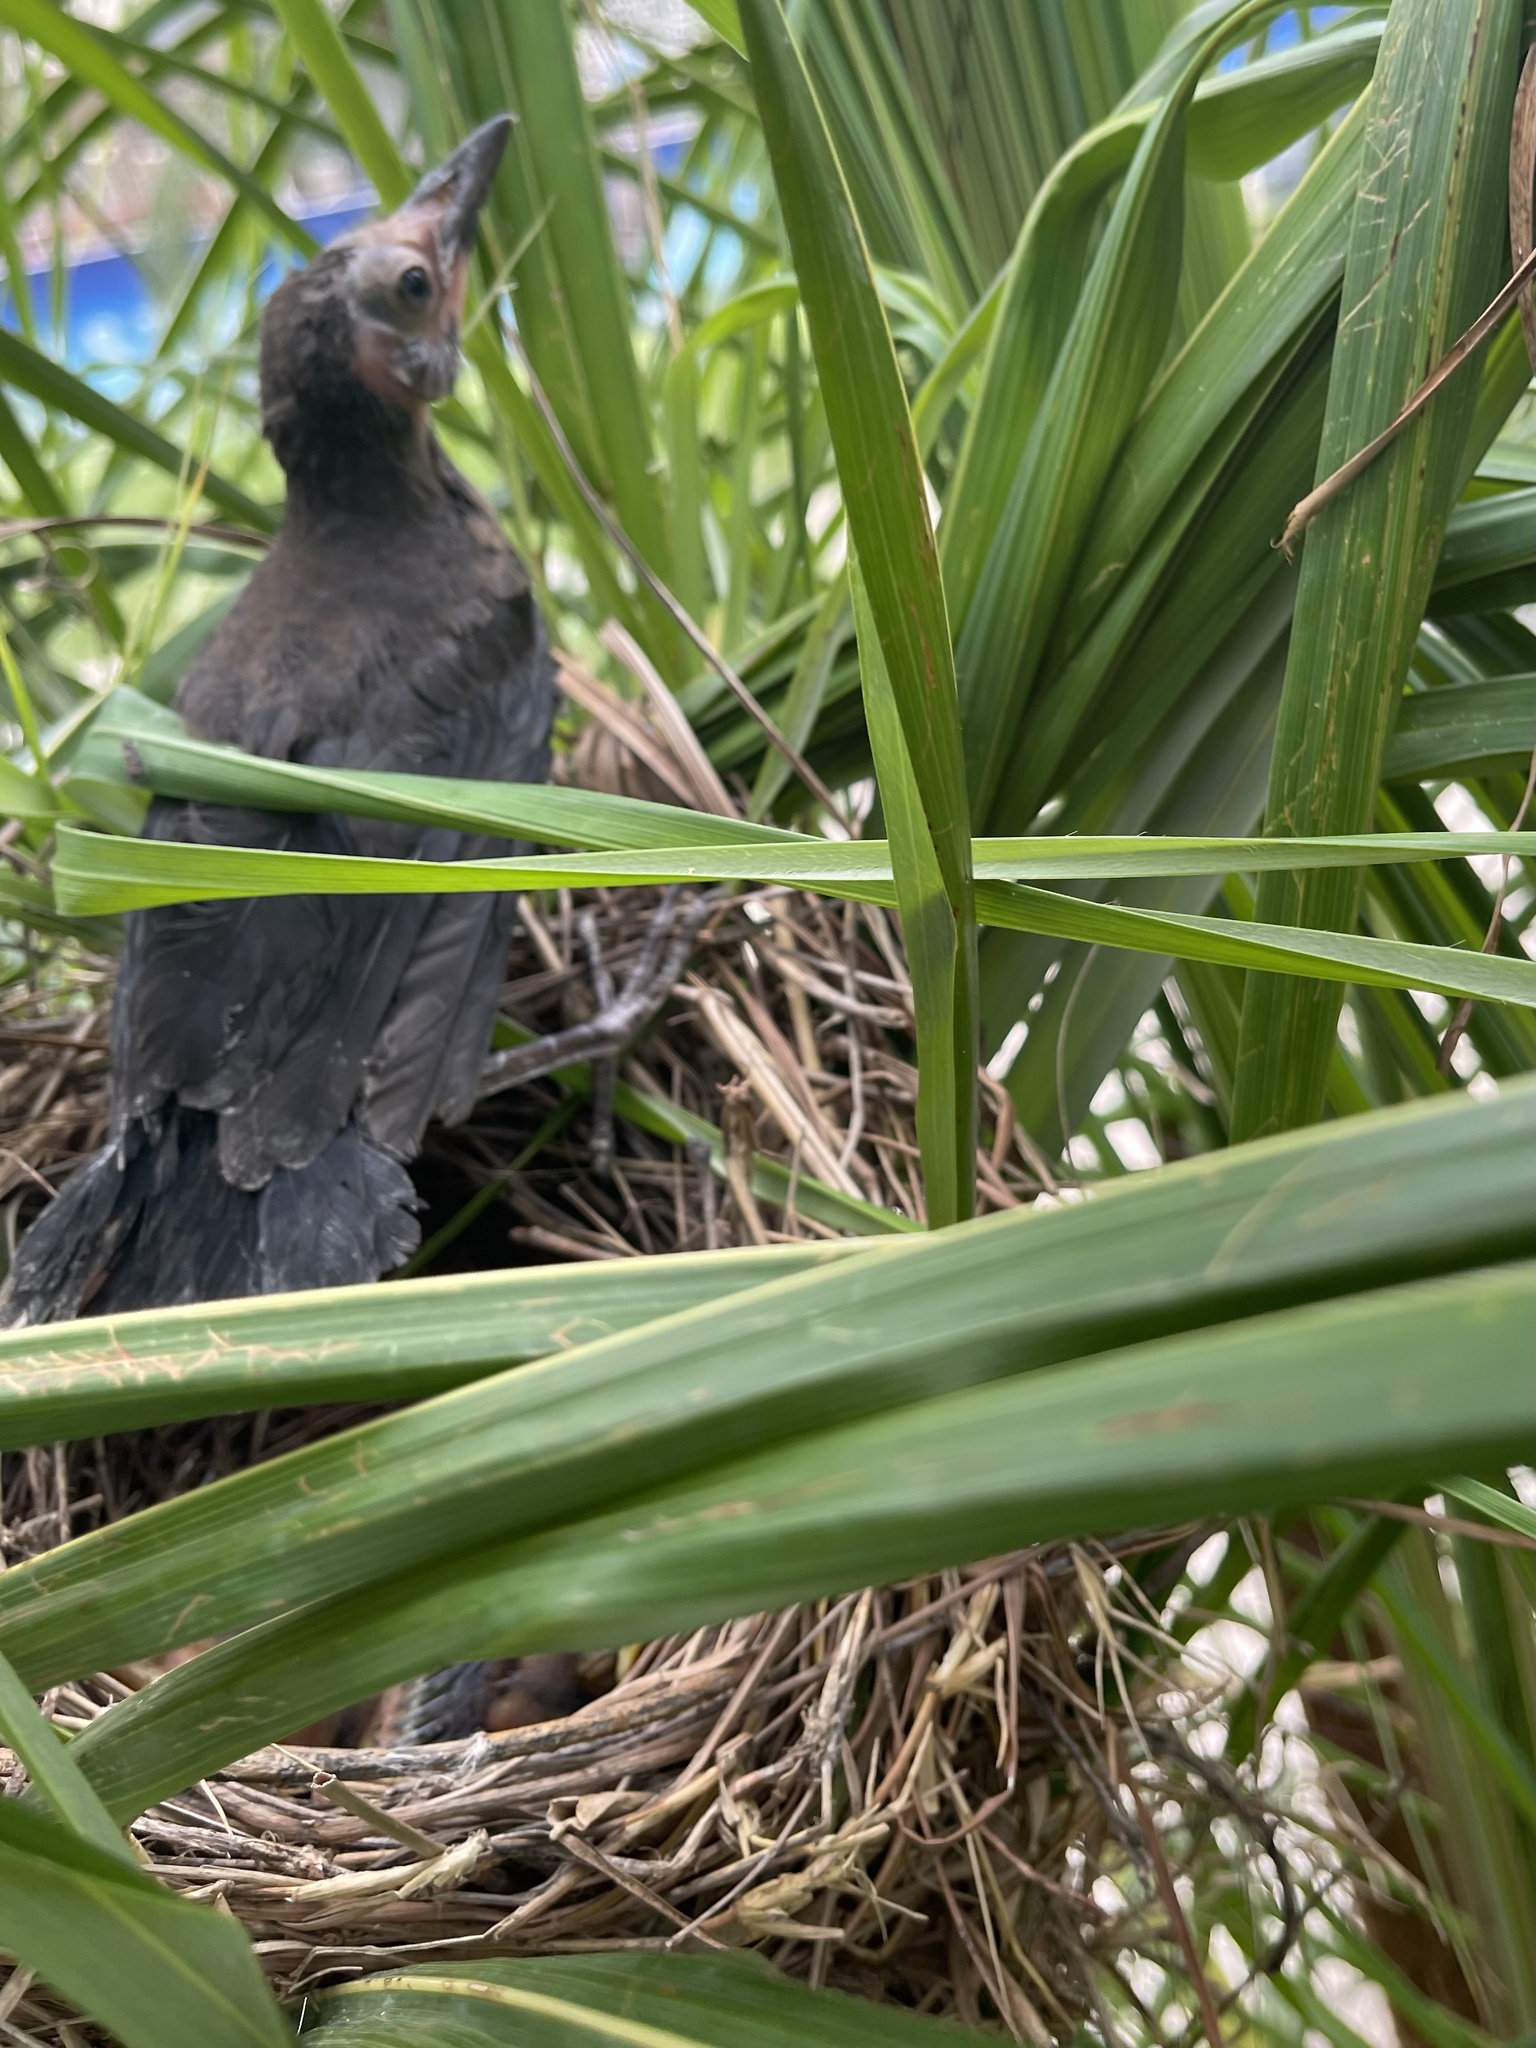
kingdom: Animalia
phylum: Chordata
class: Aves
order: Passeriformes
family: Icteridae
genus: Quiscalus
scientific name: Quiscalus mexicanus
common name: Great-tailed grackle
